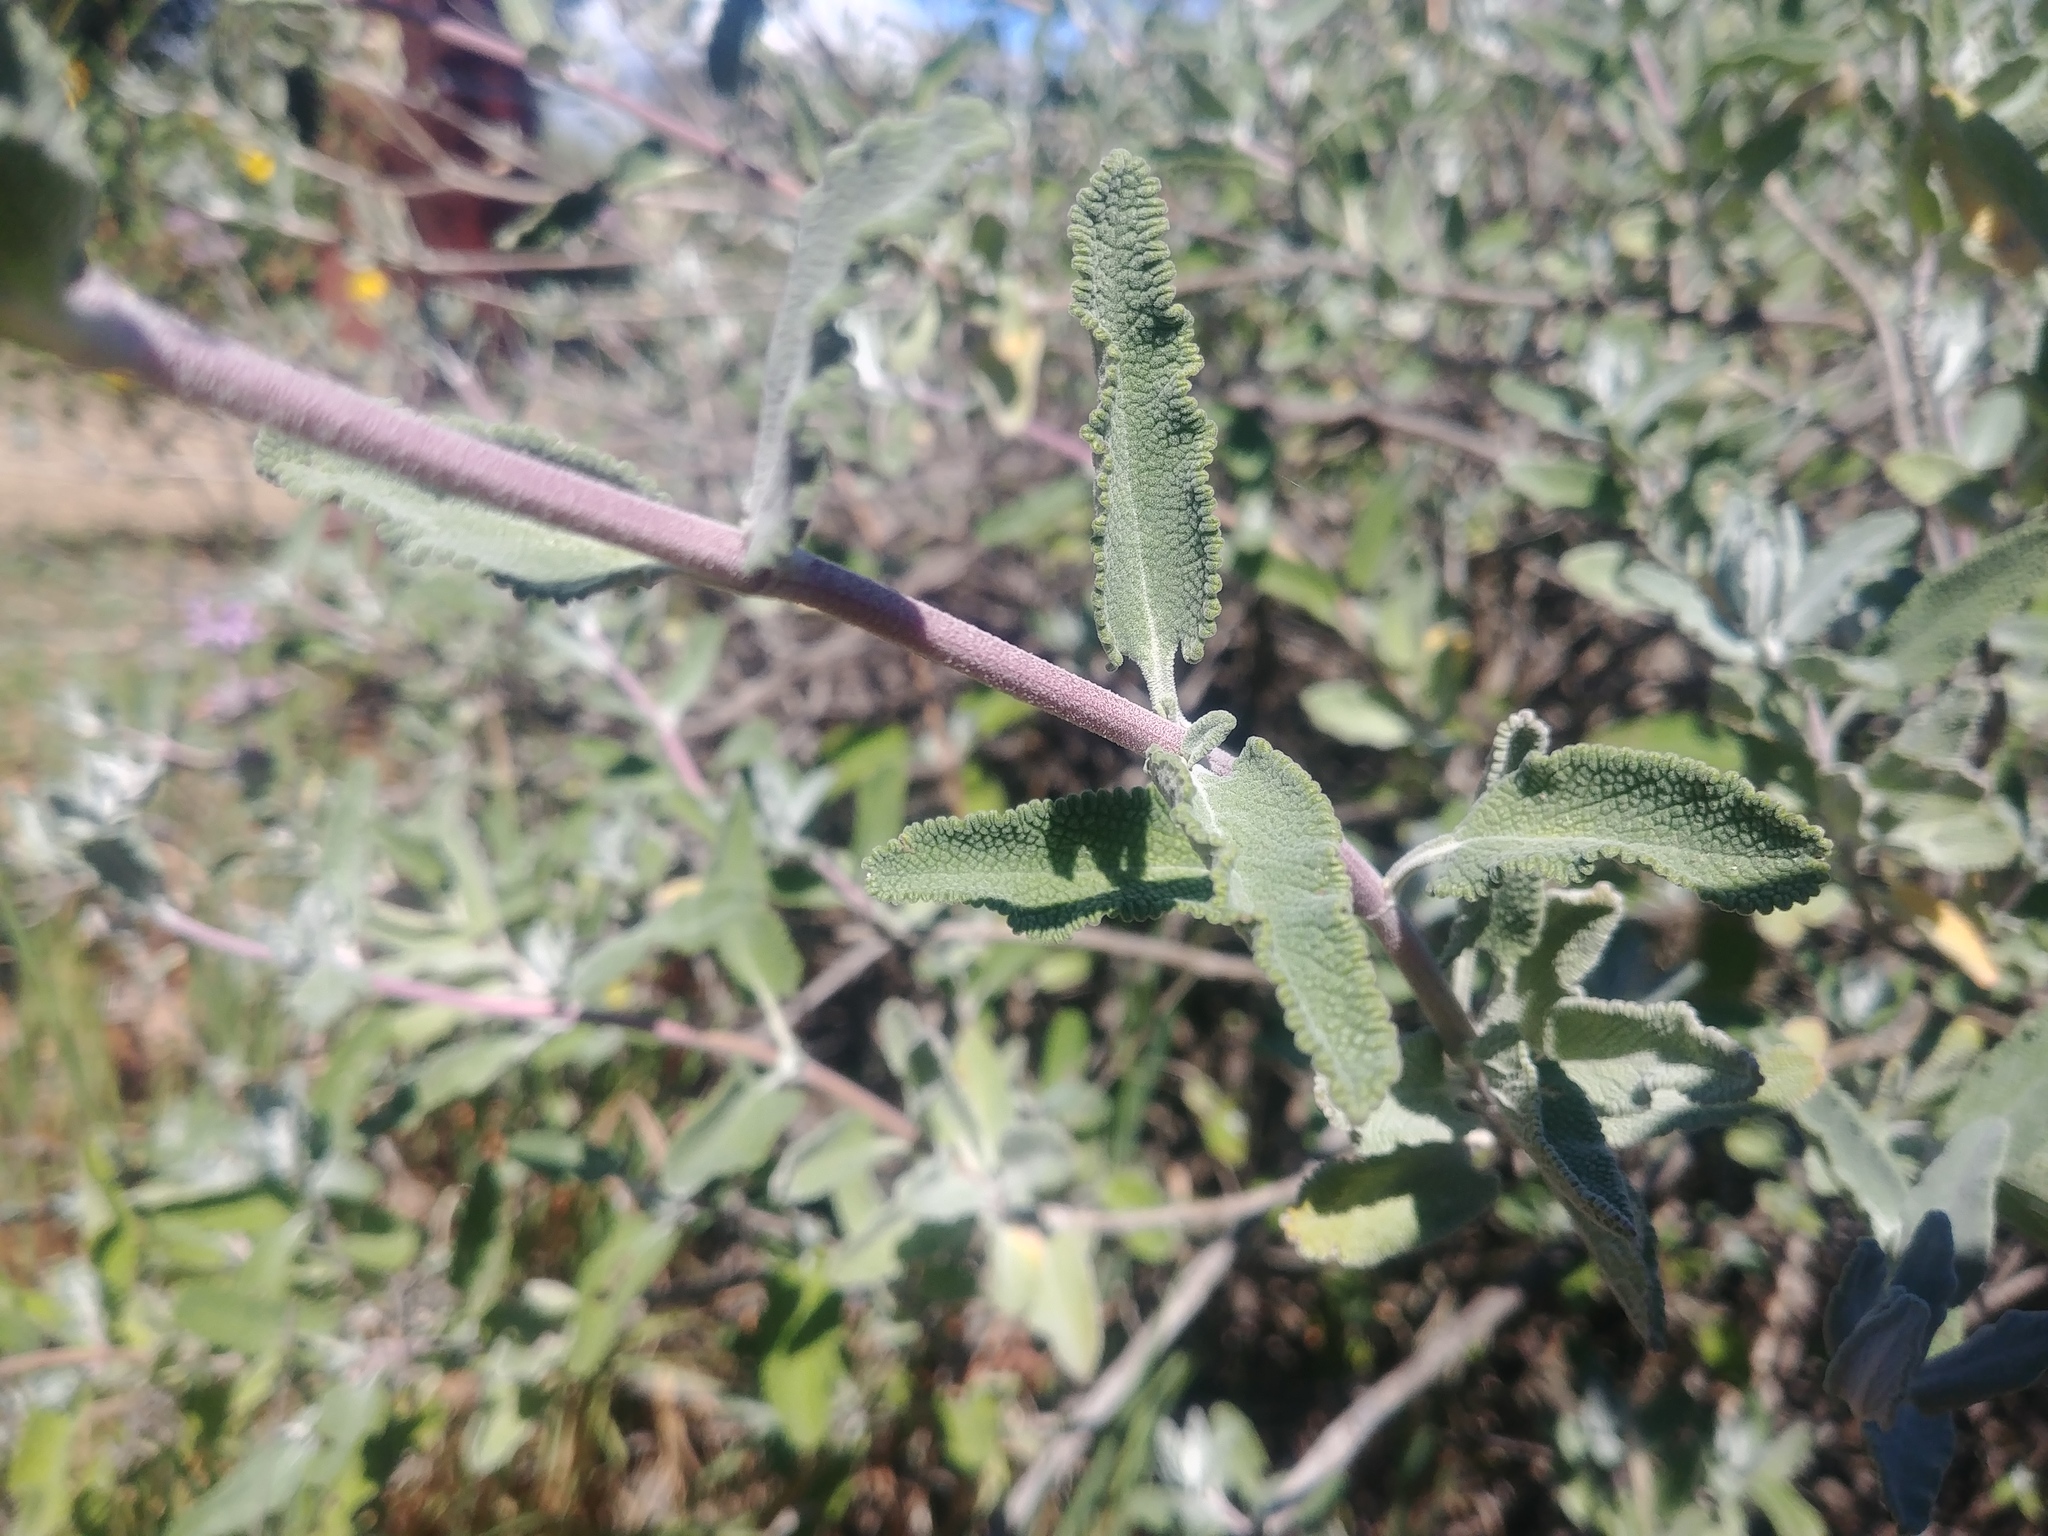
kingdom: Plantae
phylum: Tracheophyta
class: Magnoliopsida
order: Lamiales
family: Lamiaceae
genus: Salvia
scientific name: Salvia leucophylla
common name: Purple sage
